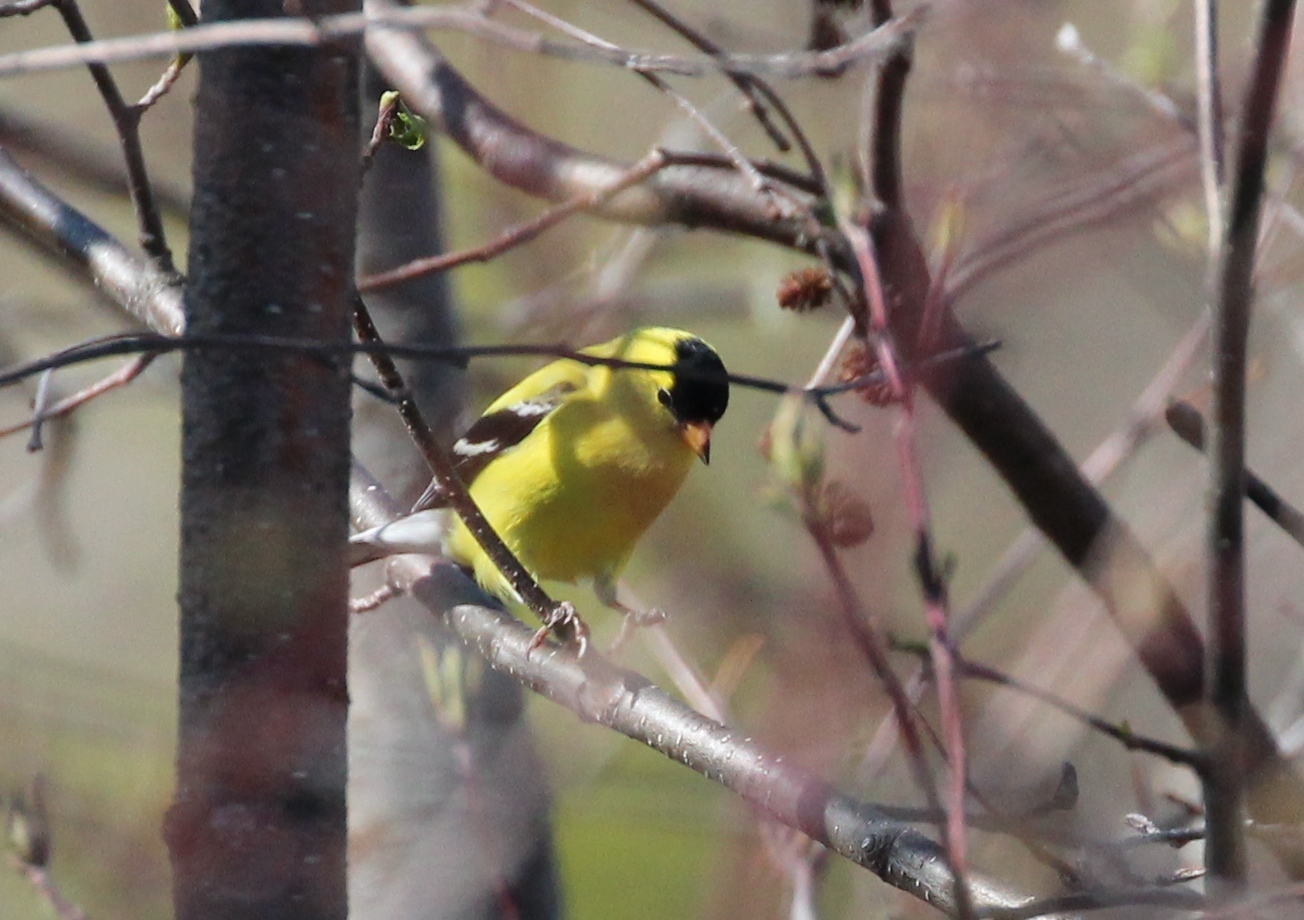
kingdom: Animalia
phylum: Chordata
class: Aves
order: Passeriformes
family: Fringillidae
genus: Spinus
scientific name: Spinus tristis
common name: American goldfinch
